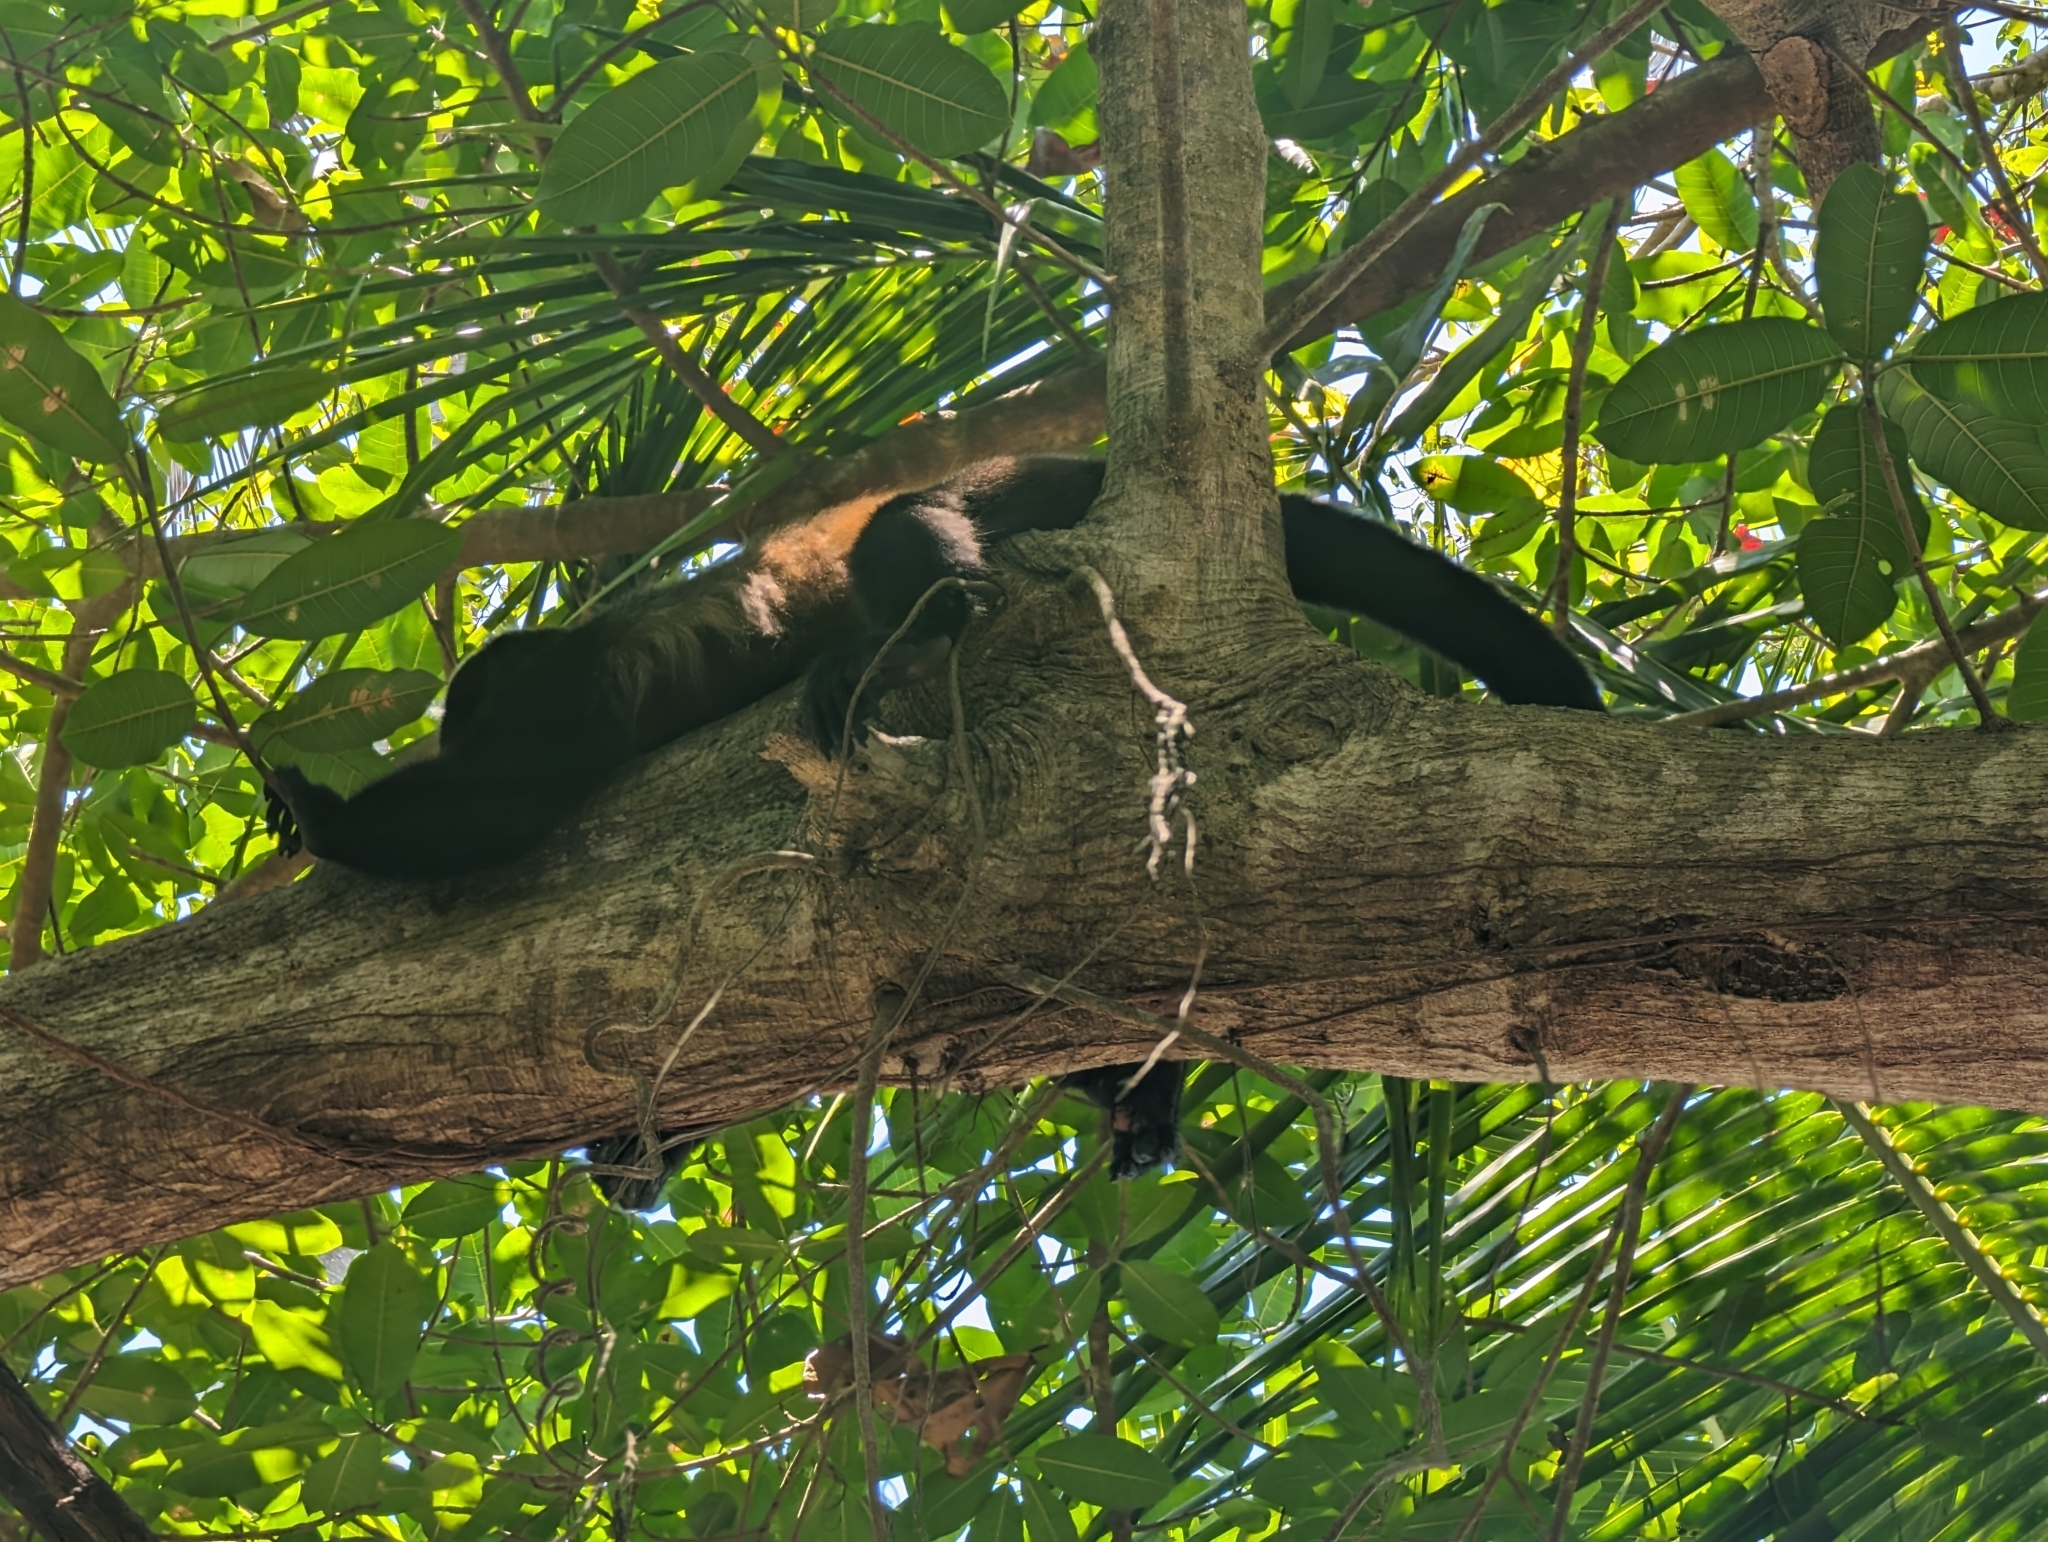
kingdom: Animalia
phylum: Chordata
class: Mammalia
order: Primates
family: Atelidae
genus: Alouatta
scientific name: Alouatta palliata
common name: Mantled howler
